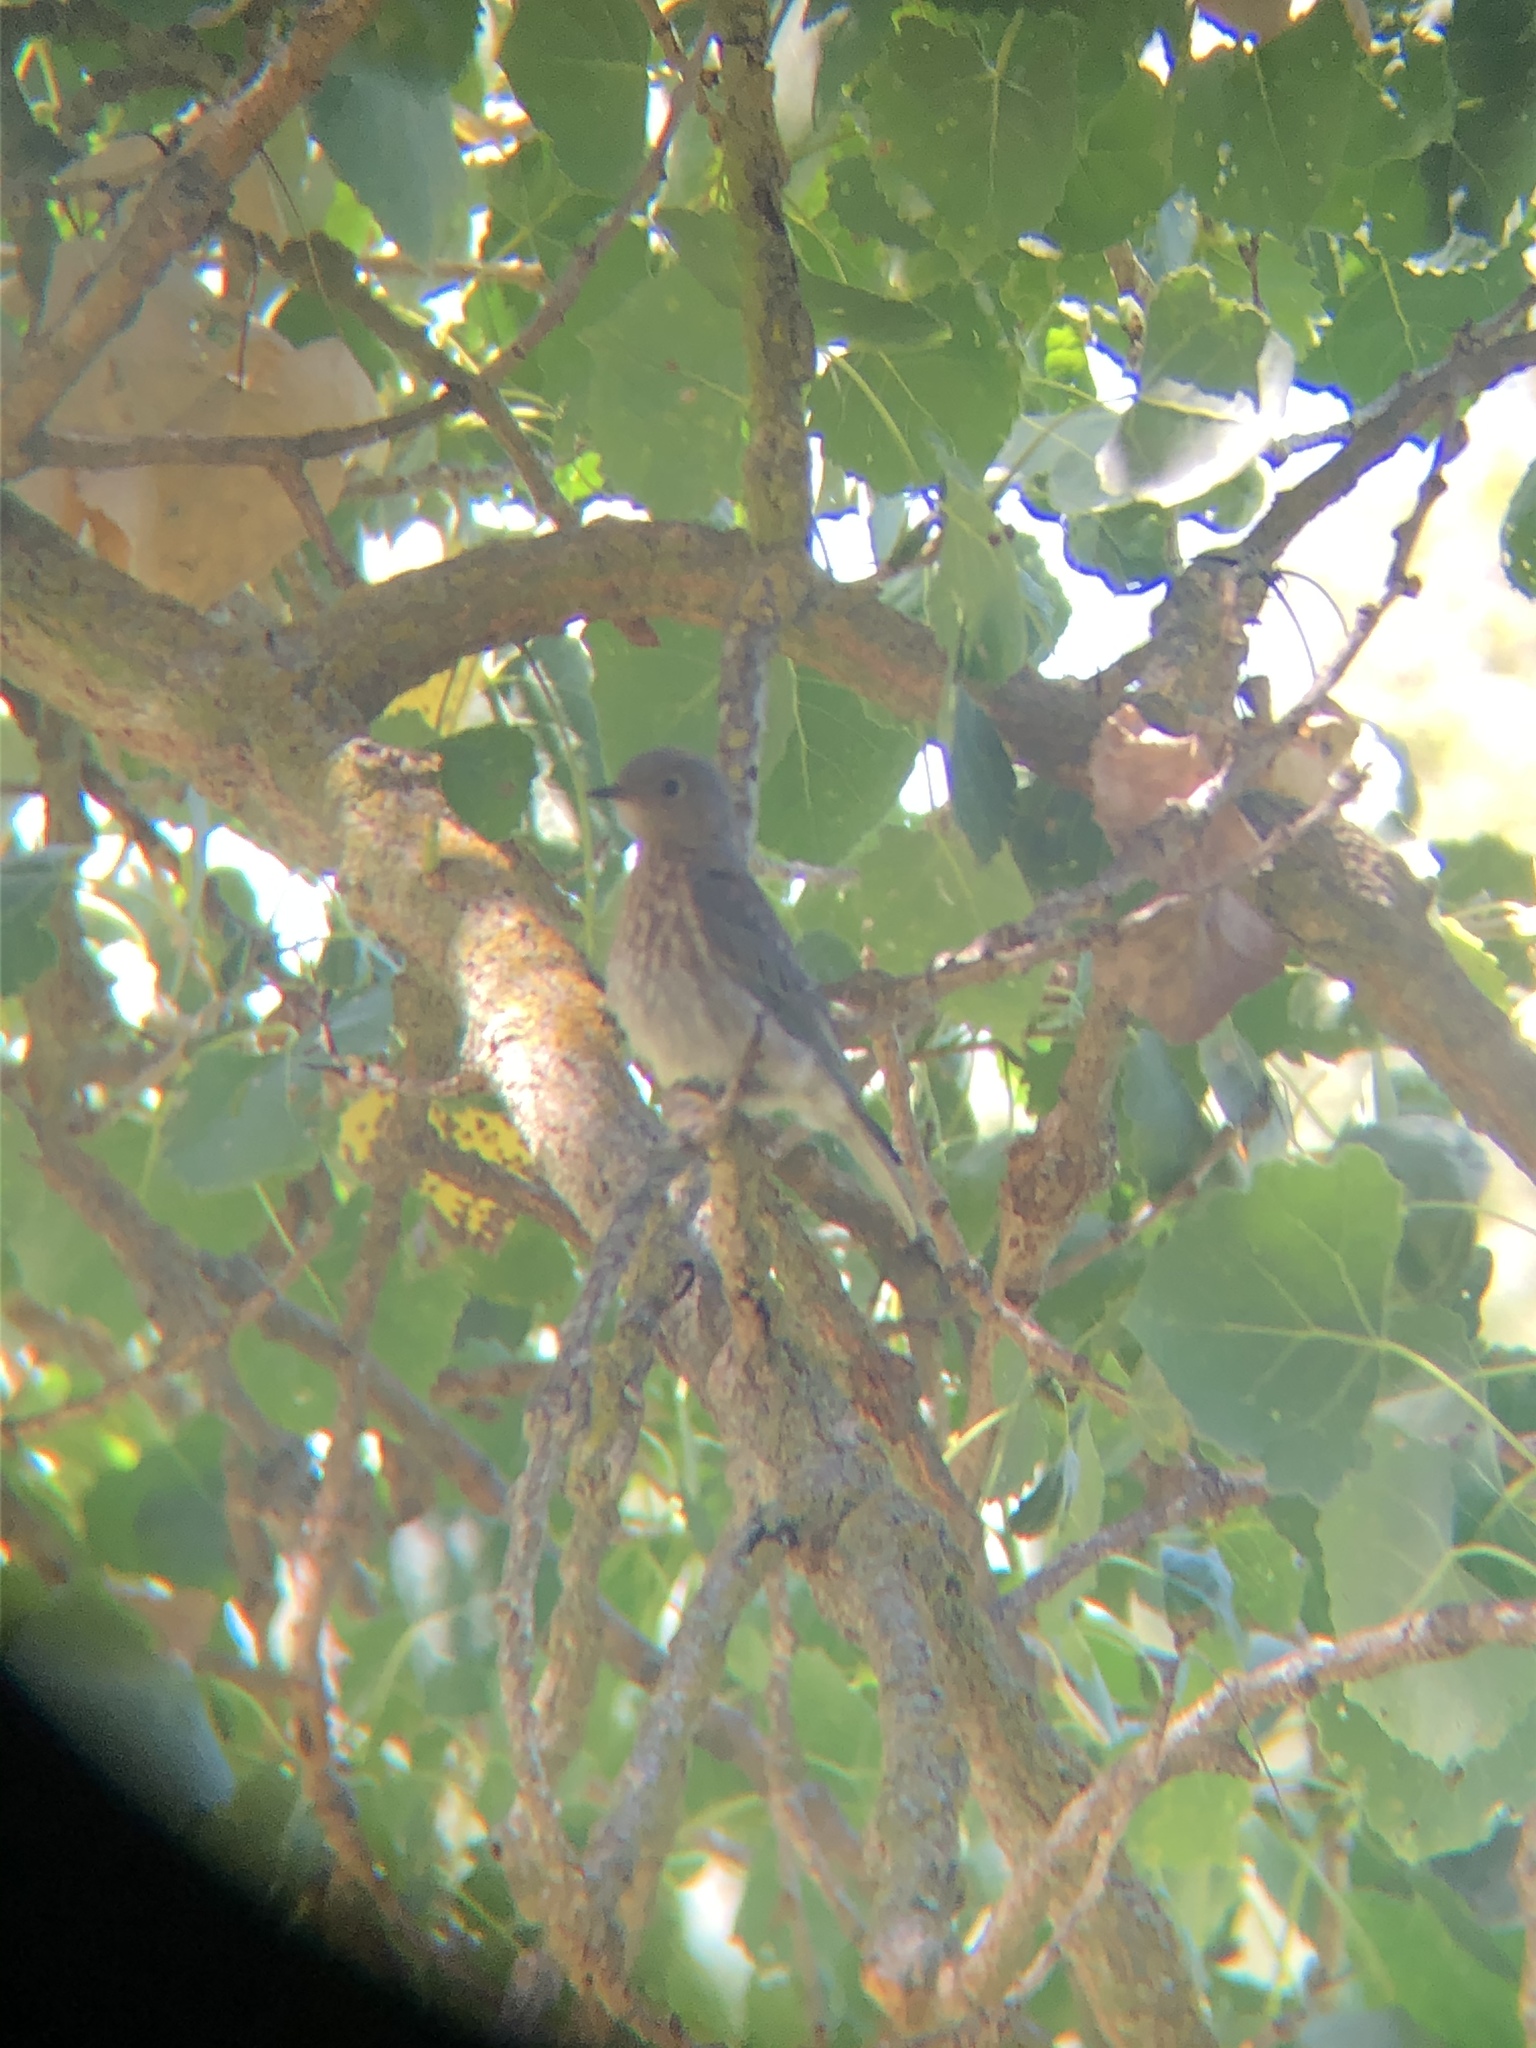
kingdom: Animalia
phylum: Chordata
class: Aves
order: Passeriformes
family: Turdidae
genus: Sialia
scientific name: Sialia mexicana
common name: Western bluebird
